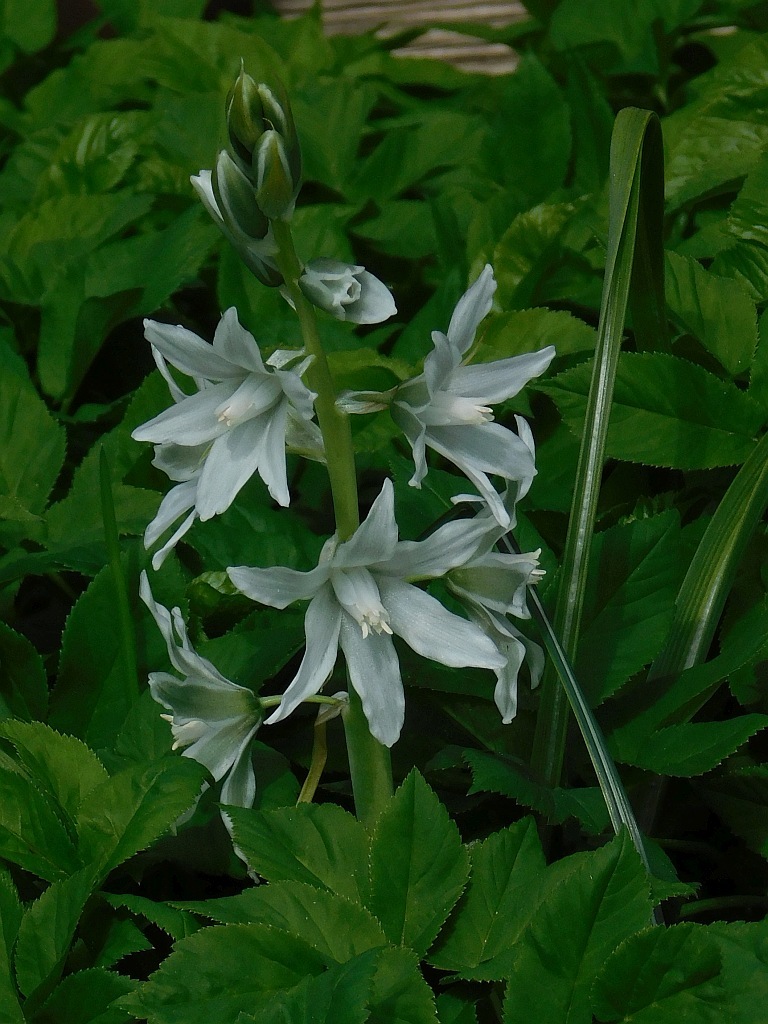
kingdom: Plantae
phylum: Tracheophyta
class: Liliopsida
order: Asparagales
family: Asparagaceae
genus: Ornithogalum
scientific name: Ornithogalum nutans
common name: Drooping star-of-bethlehem
